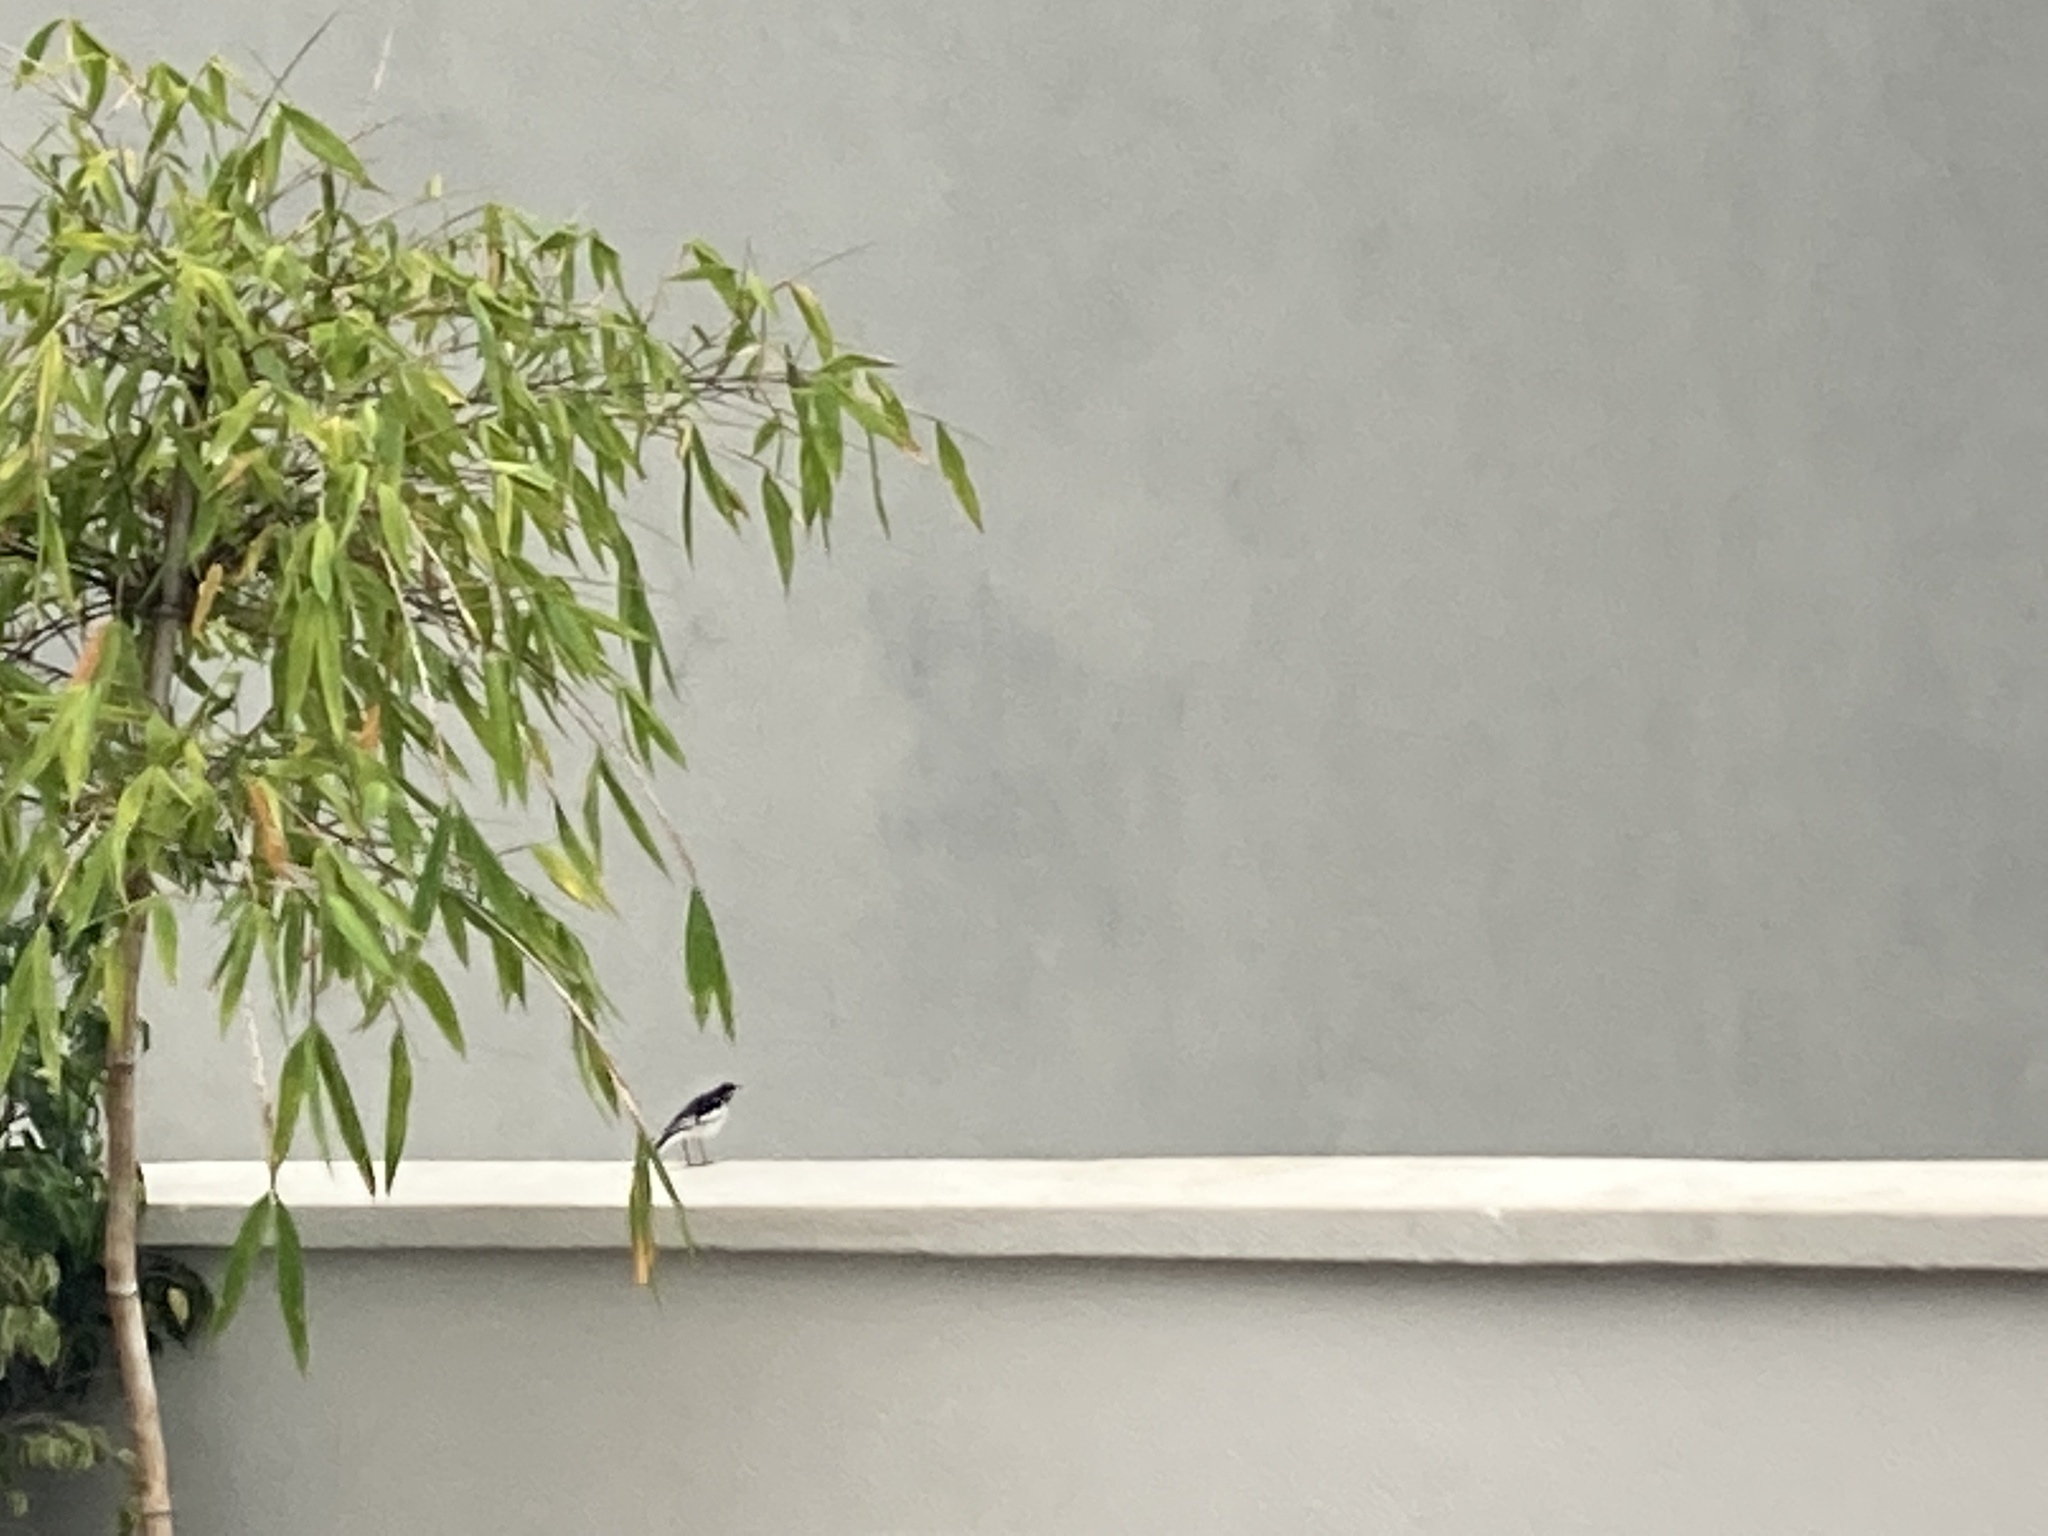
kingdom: Animalia
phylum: Chordata
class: Aves
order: Passeriformes
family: Motacillidae
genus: Motacilla
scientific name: Motacilla aguimp
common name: African pied wagtail
